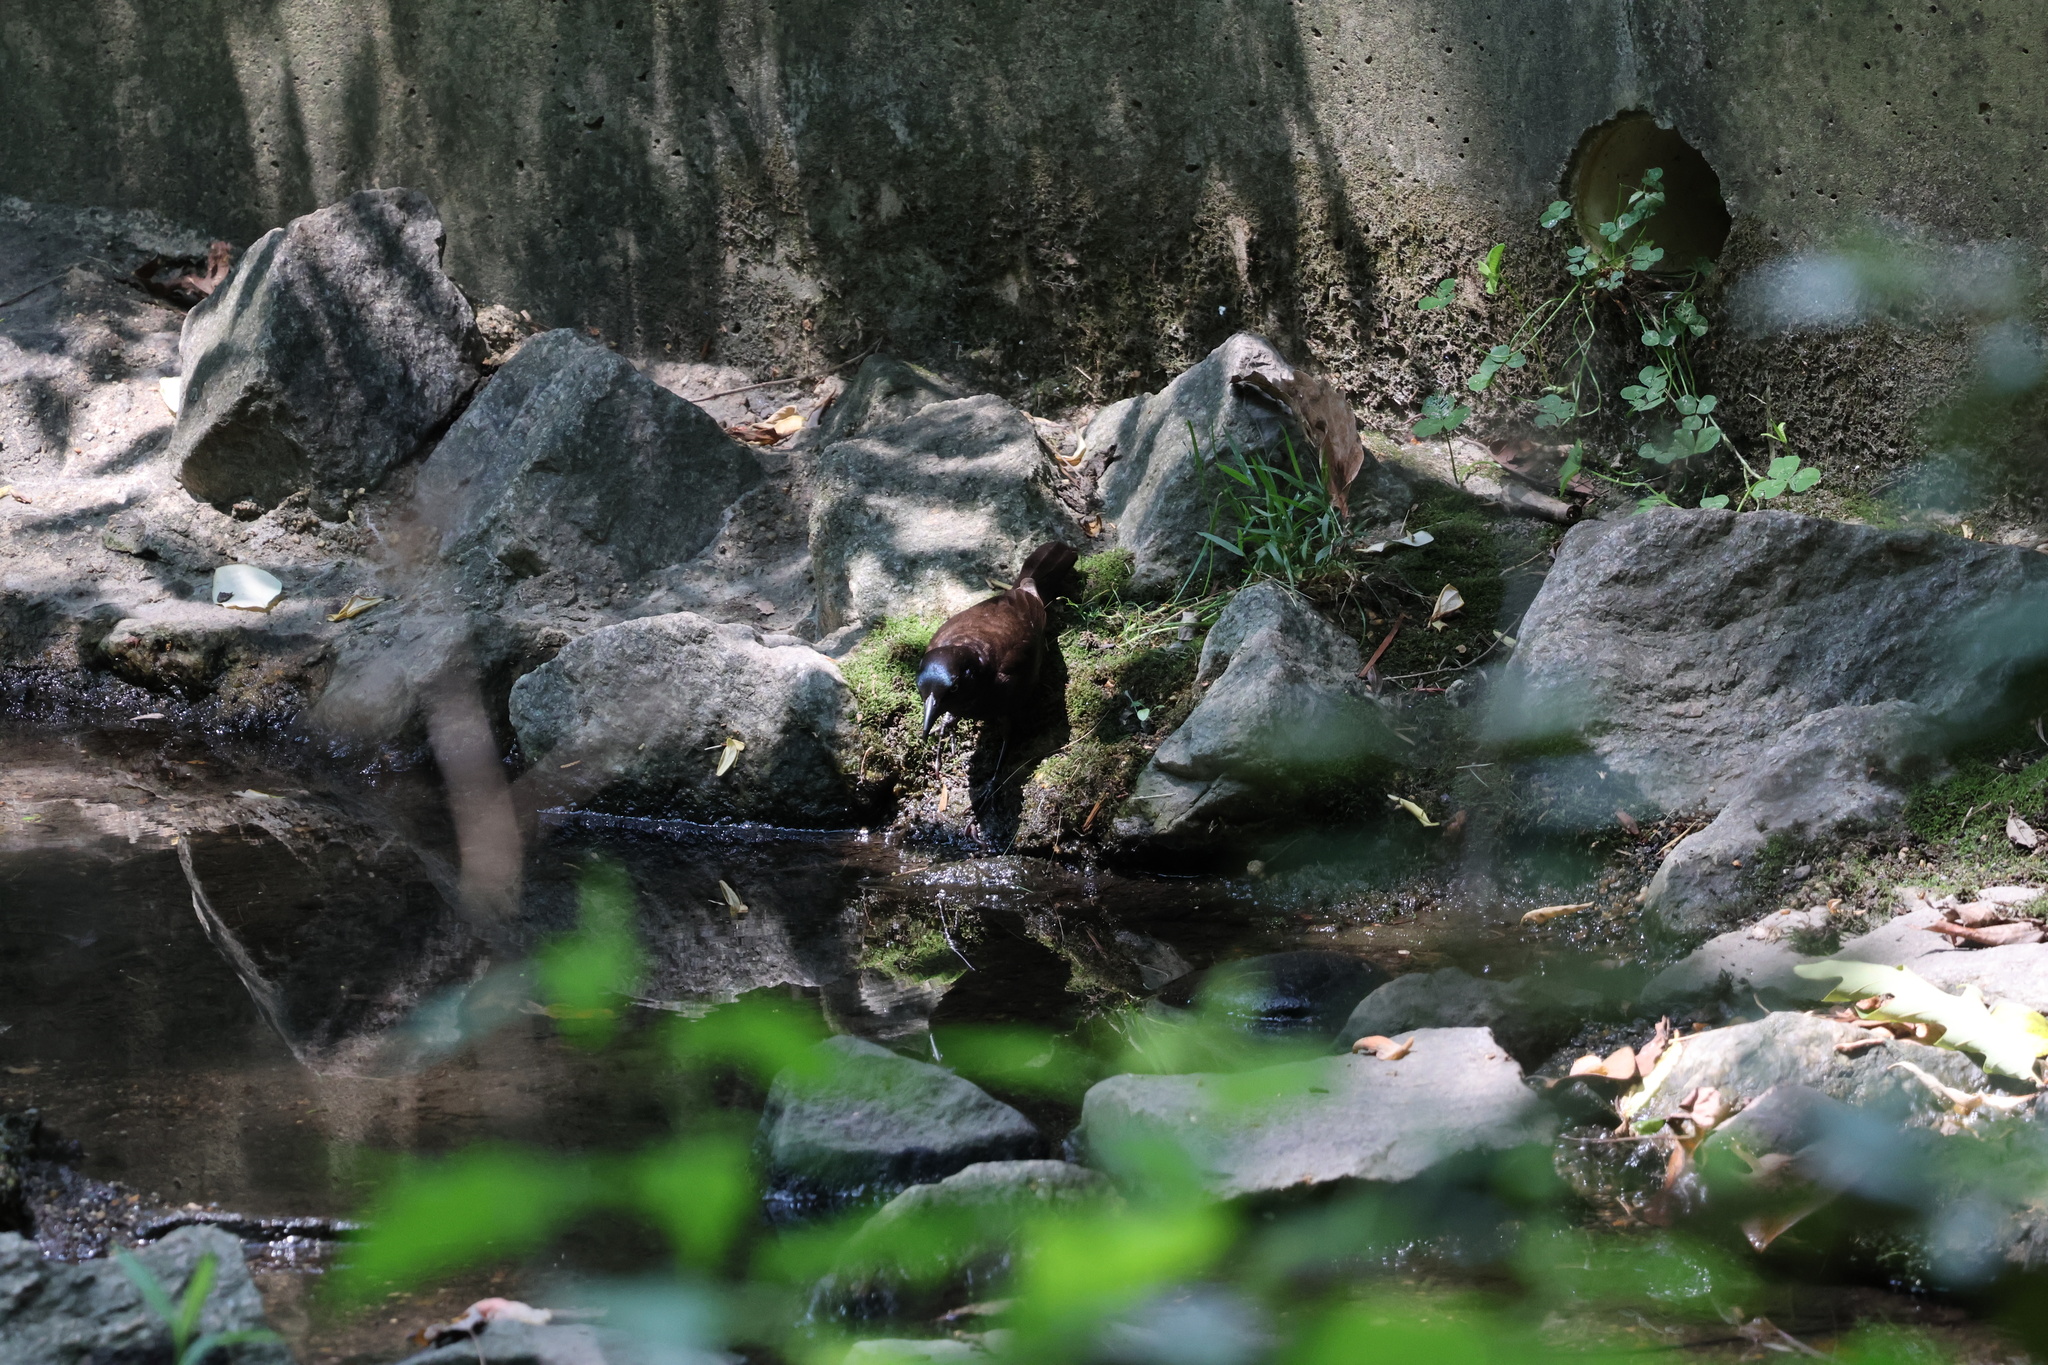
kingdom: Animalia
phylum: Chordata
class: Aves
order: Passeriformes
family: Icteridae
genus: Quiscalus
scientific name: Quiscalus quiscula
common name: Common grackle
